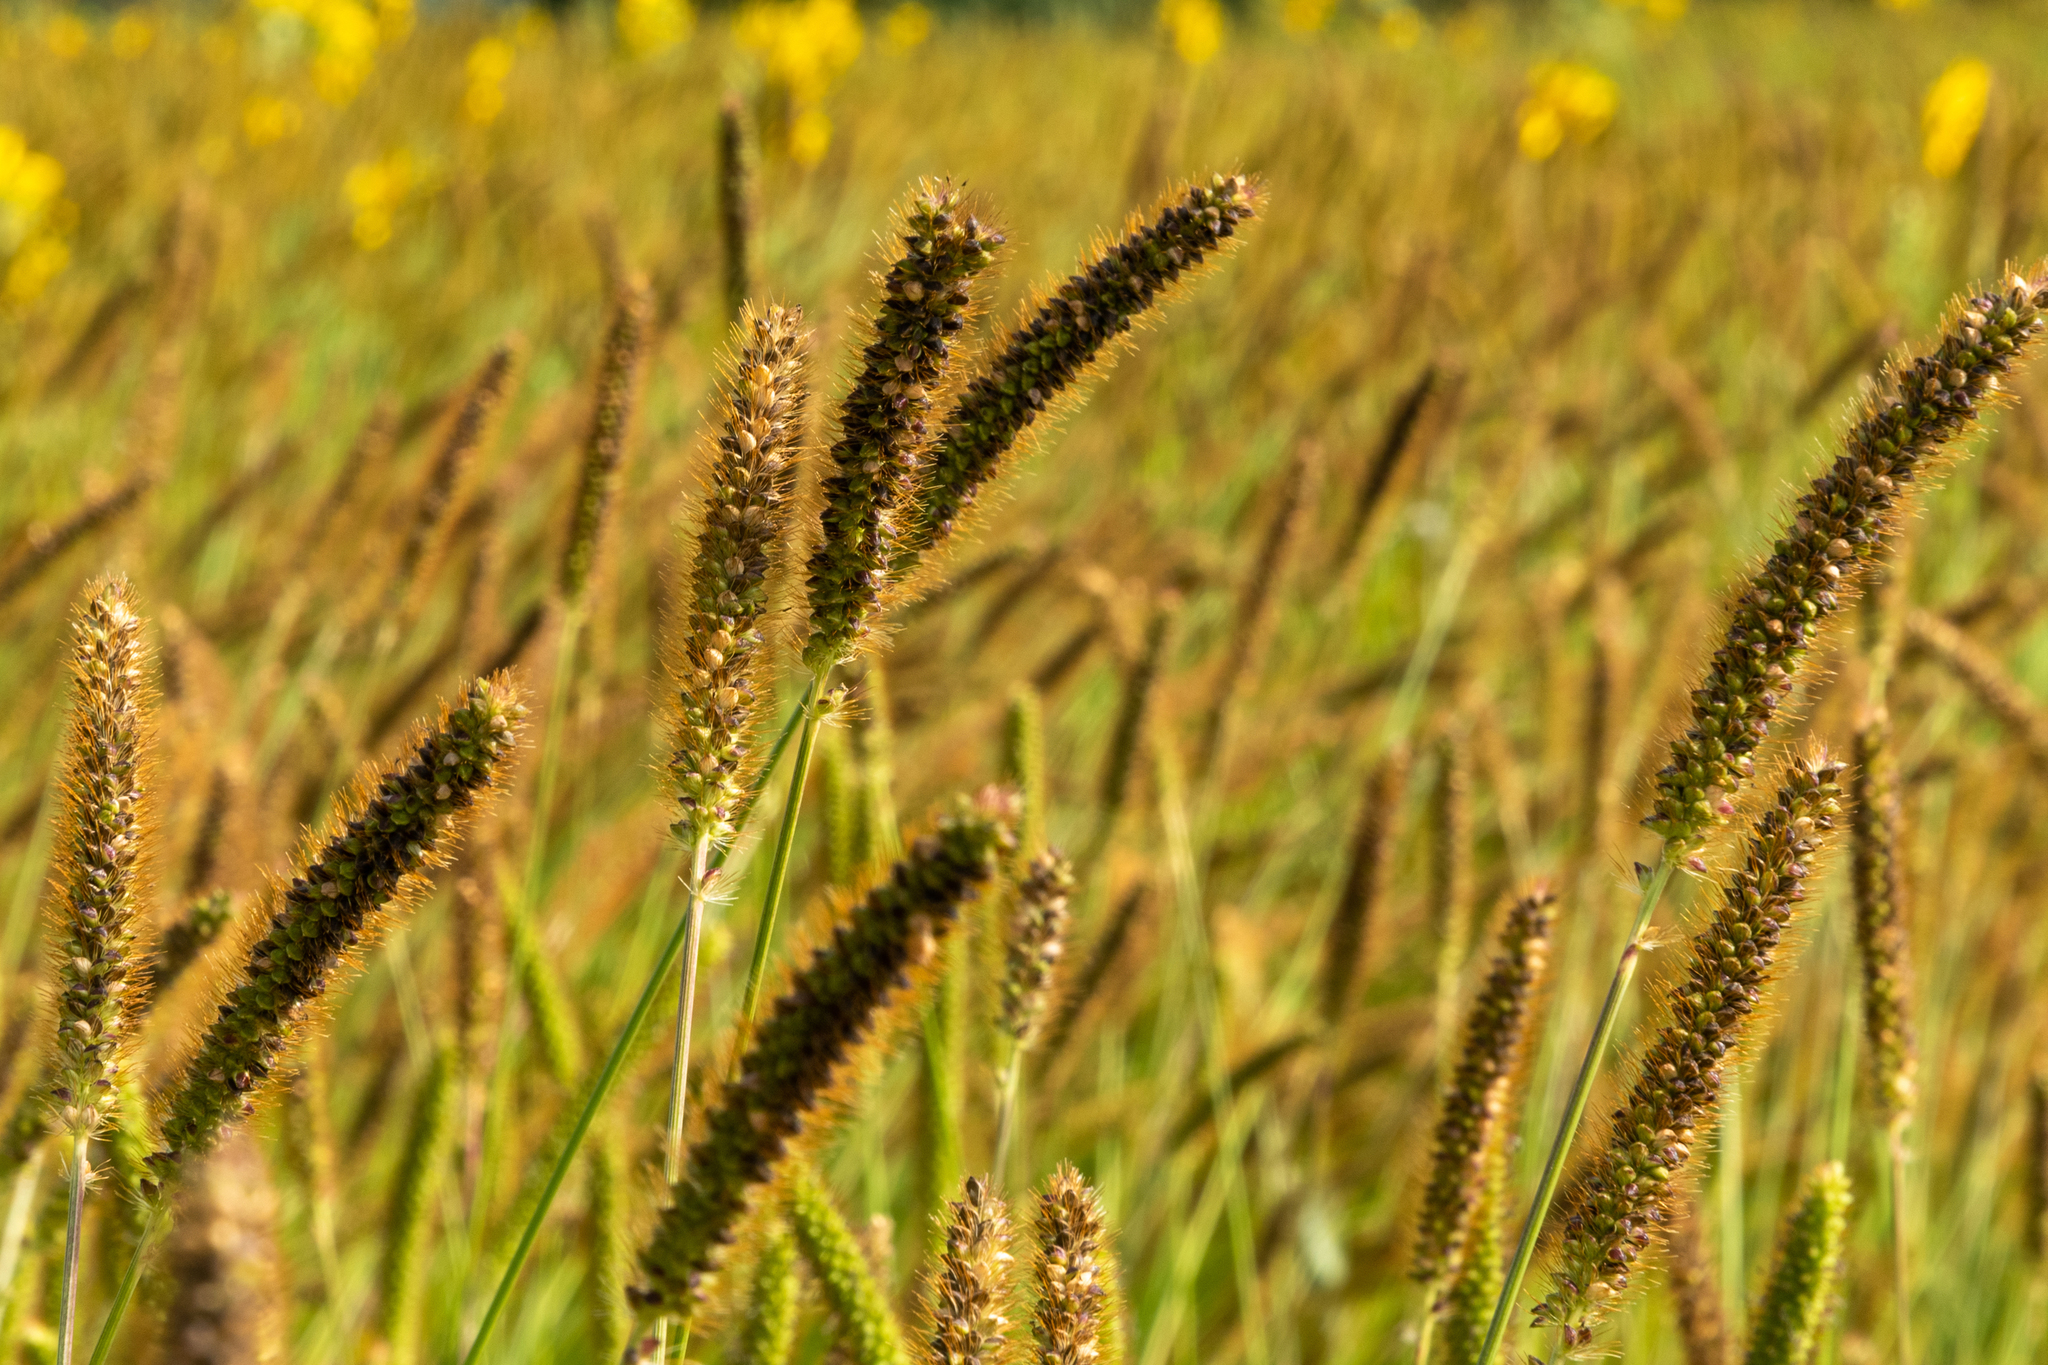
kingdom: Plantae
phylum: Tracheophyta
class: Liliopsida
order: Poales
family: Poaceae
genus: Setaria
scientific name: Setaria pumila
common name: Yellow bristle-grass
